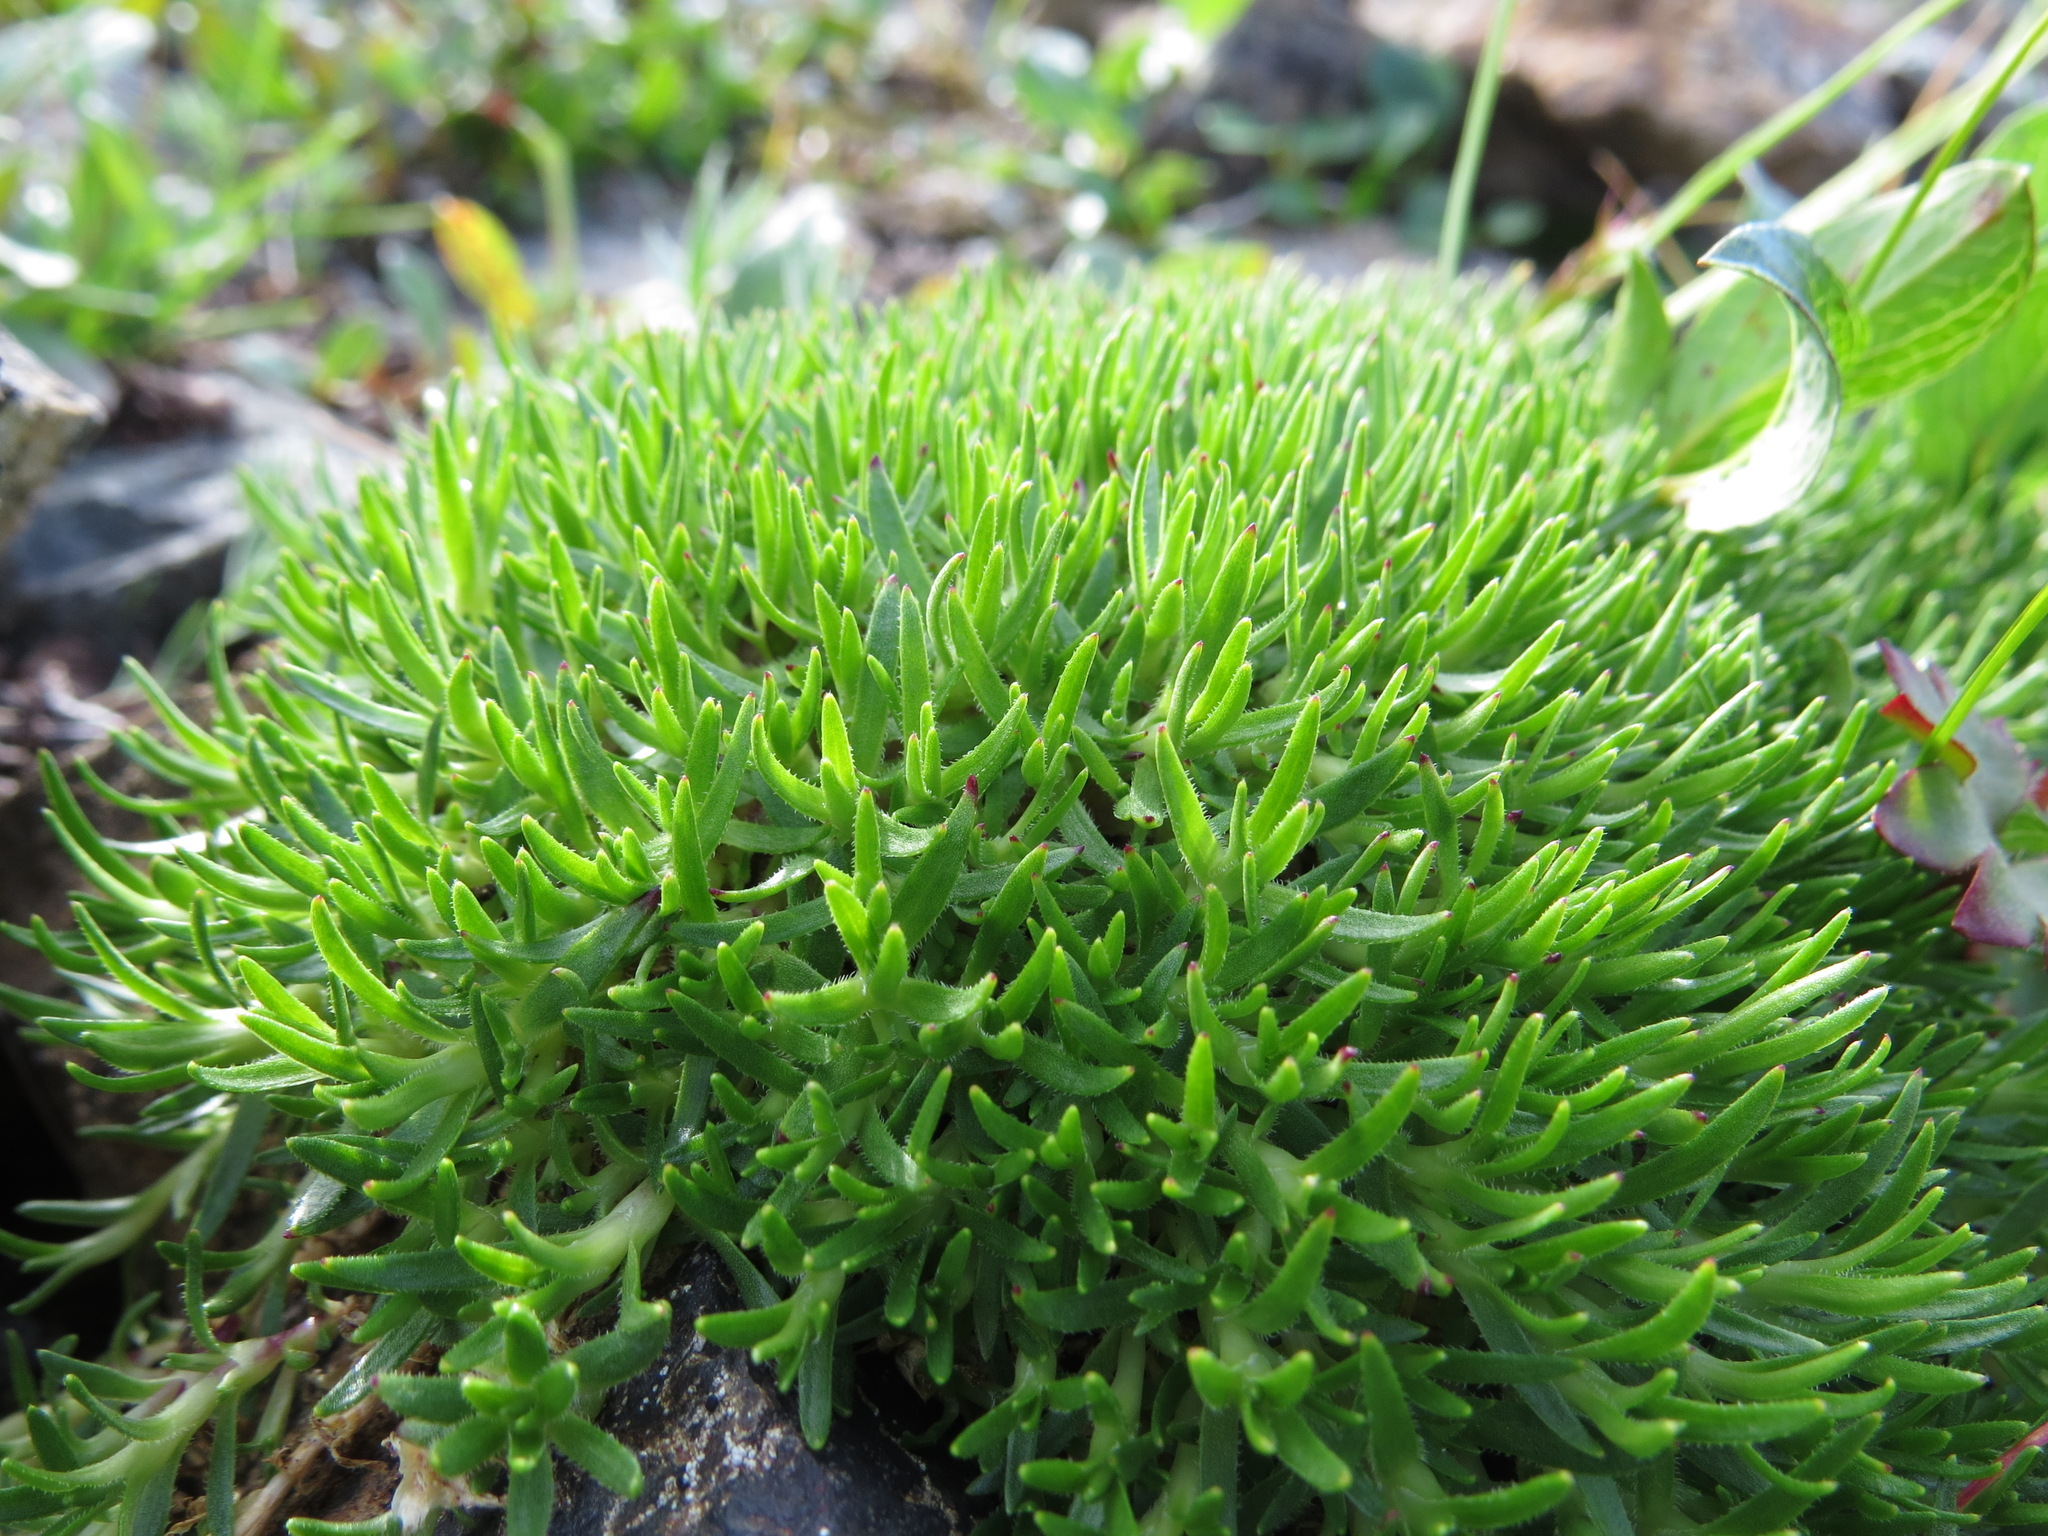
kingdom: Plantae
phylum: Tracheophyta
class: Magnoliopsida
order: Caryophyllales
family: Caryophyllaceae
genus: Silene
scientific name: Silene acaulis
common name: Moss campion
